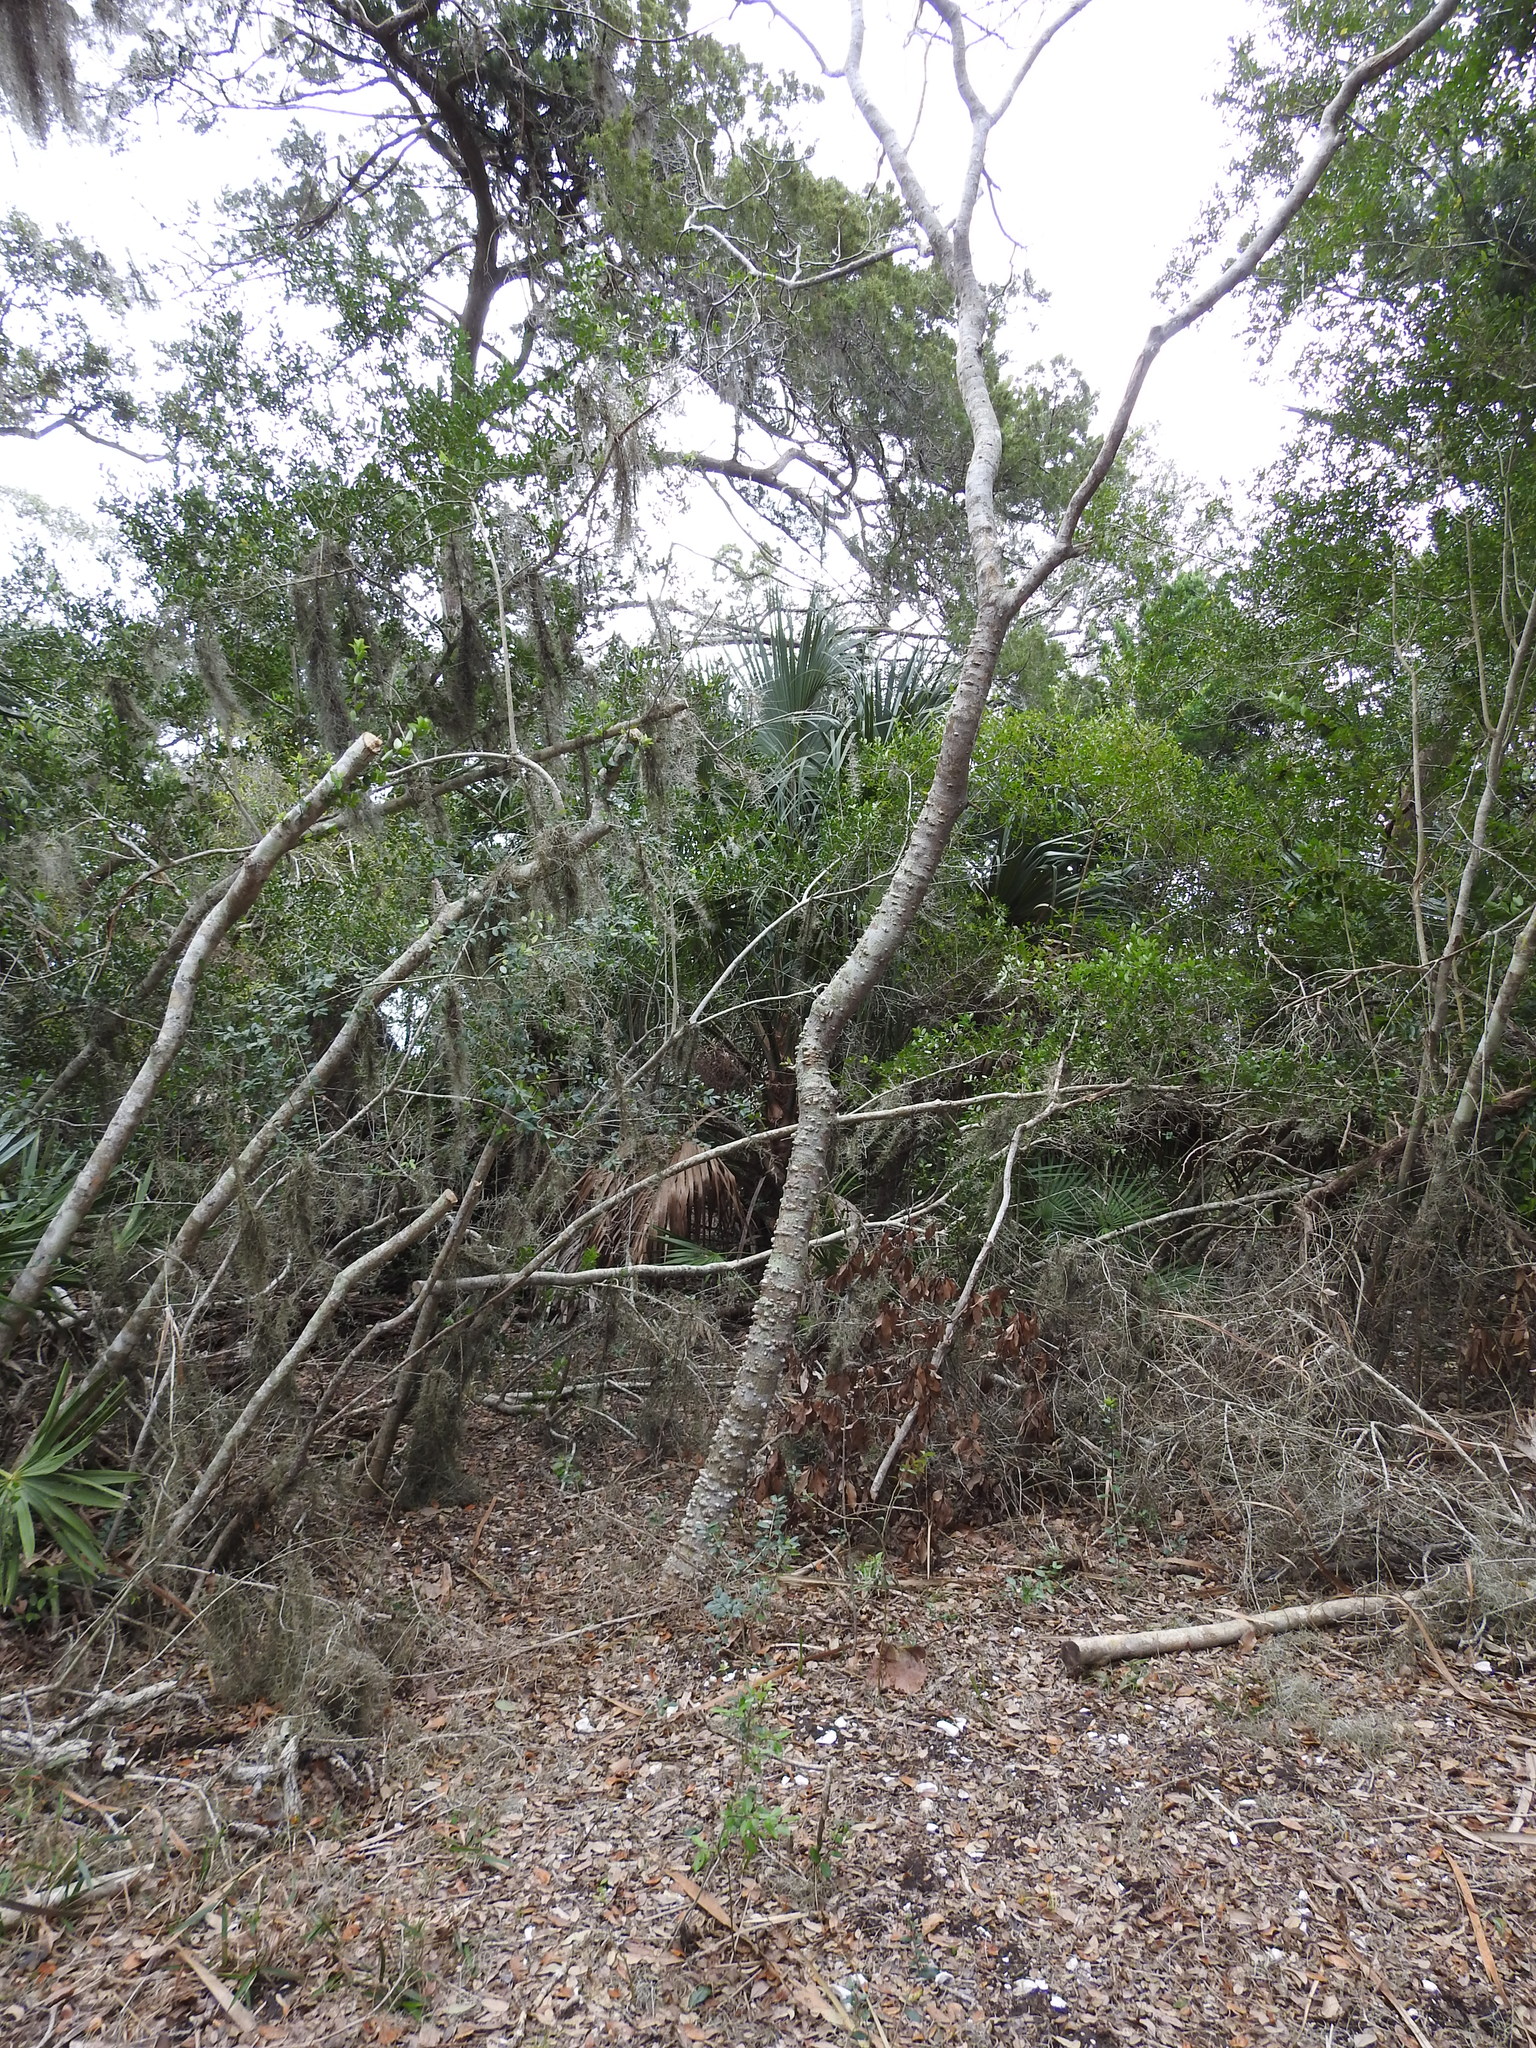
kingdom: Plantae
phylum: Tracheophyta
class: Magnoliopsida
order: Sapindales
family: Rutaceae
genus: Zanthoxylum
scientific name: Zanthoxylum clava-herculis
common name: Hercules'-club
